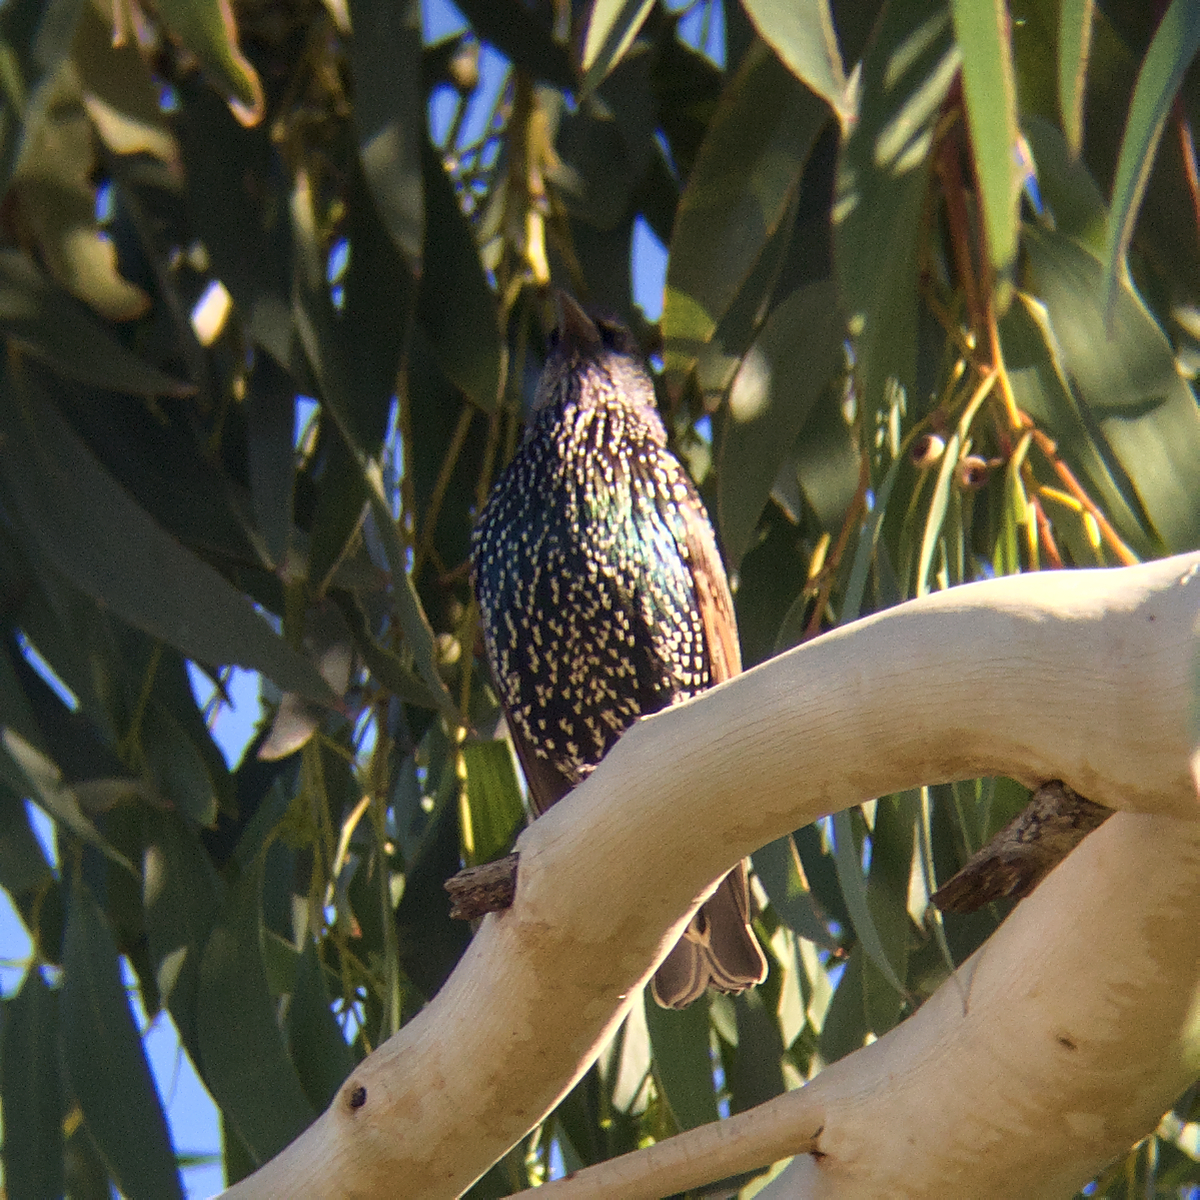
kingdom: Animalia
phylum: Chordata
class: Aves
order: Passeriformes
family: Sturnidae
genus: Sturnus
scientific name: Sturnus vulgaris
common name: Common starling
